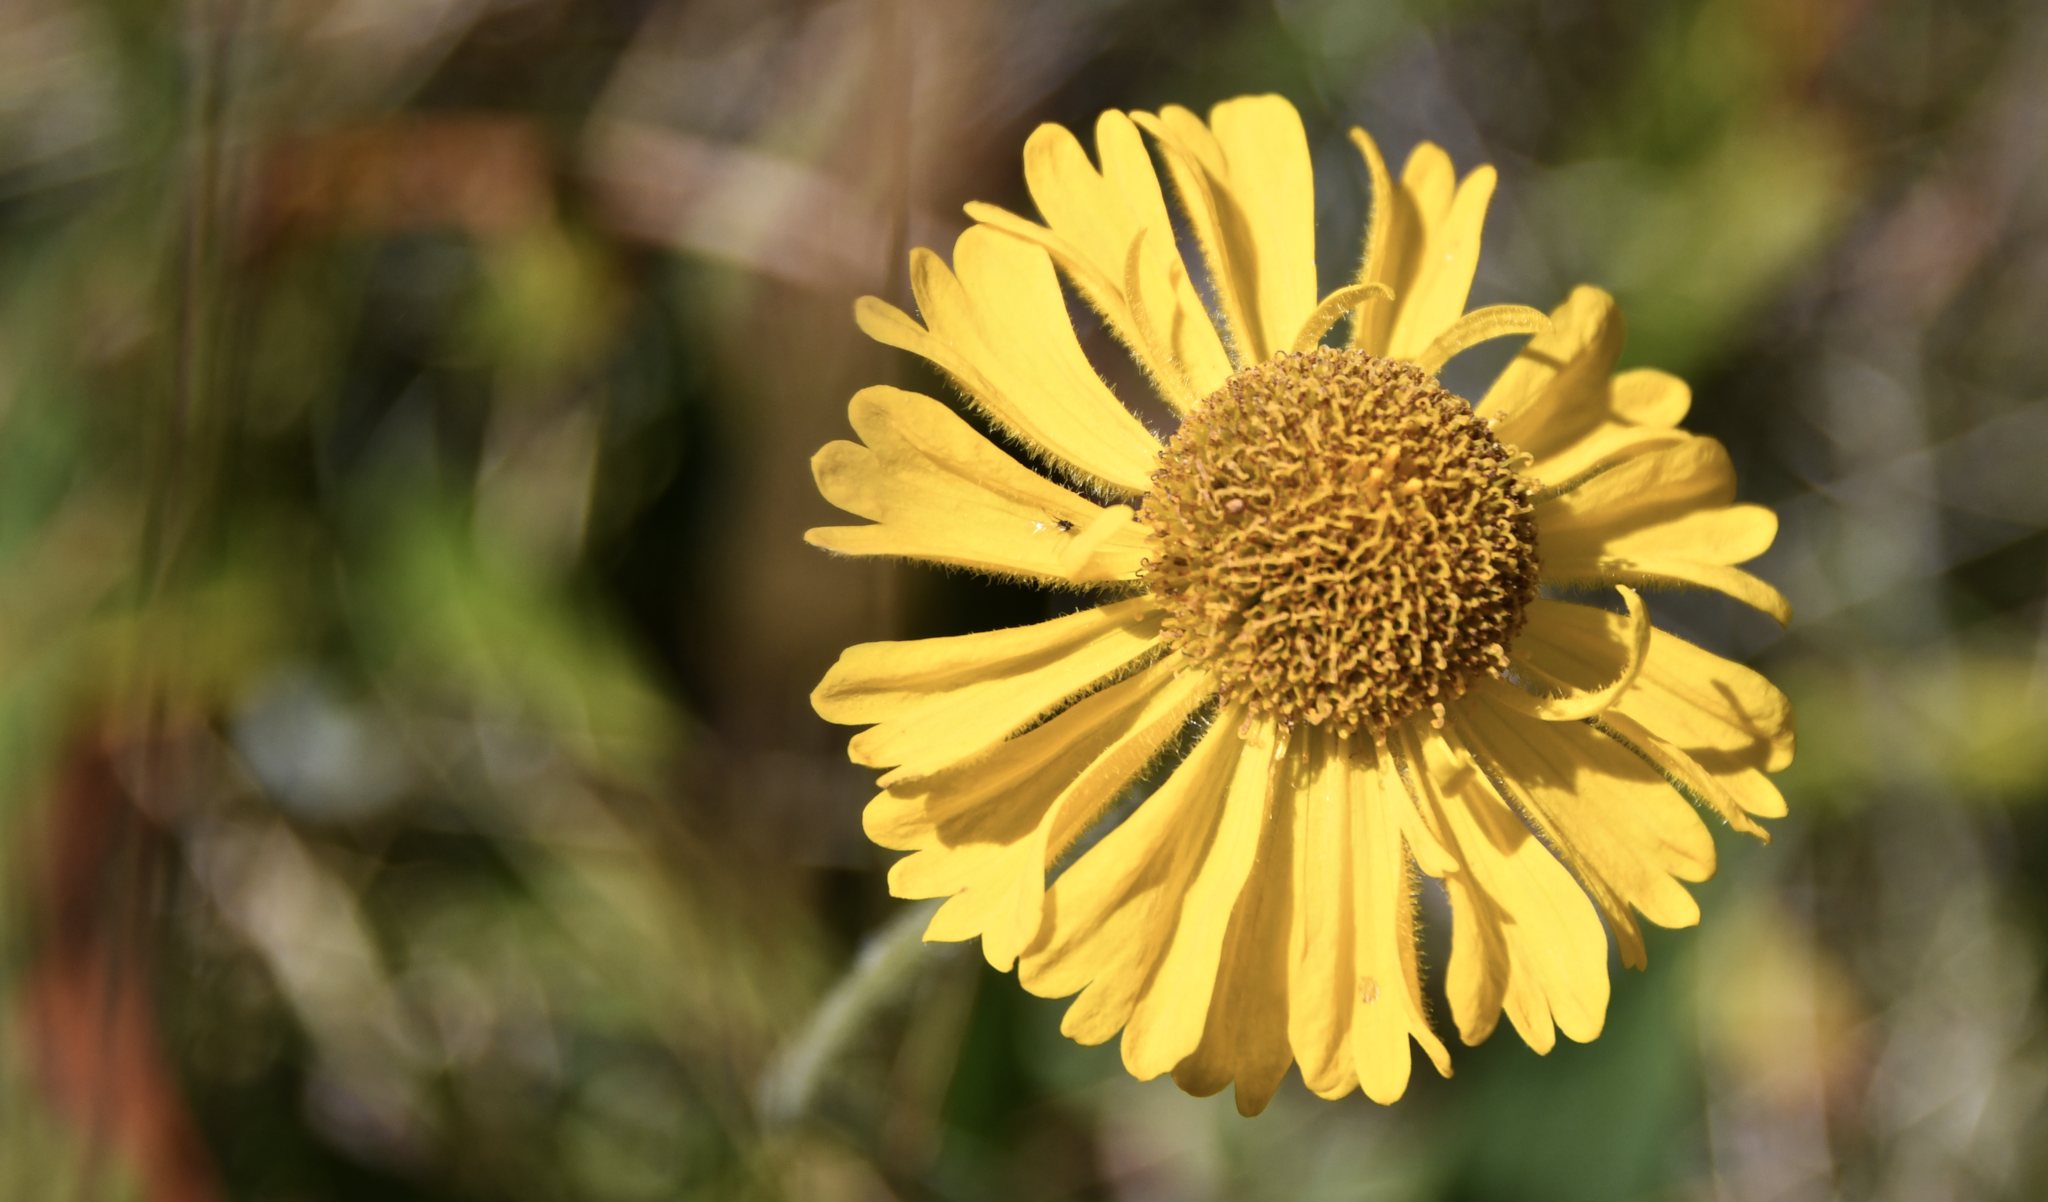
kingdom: Plantae
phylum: Tracheophyta
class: Magnoliopsida
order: Asterales
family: Asteraceae
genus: Helenium
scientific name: Helenium bolanderi
